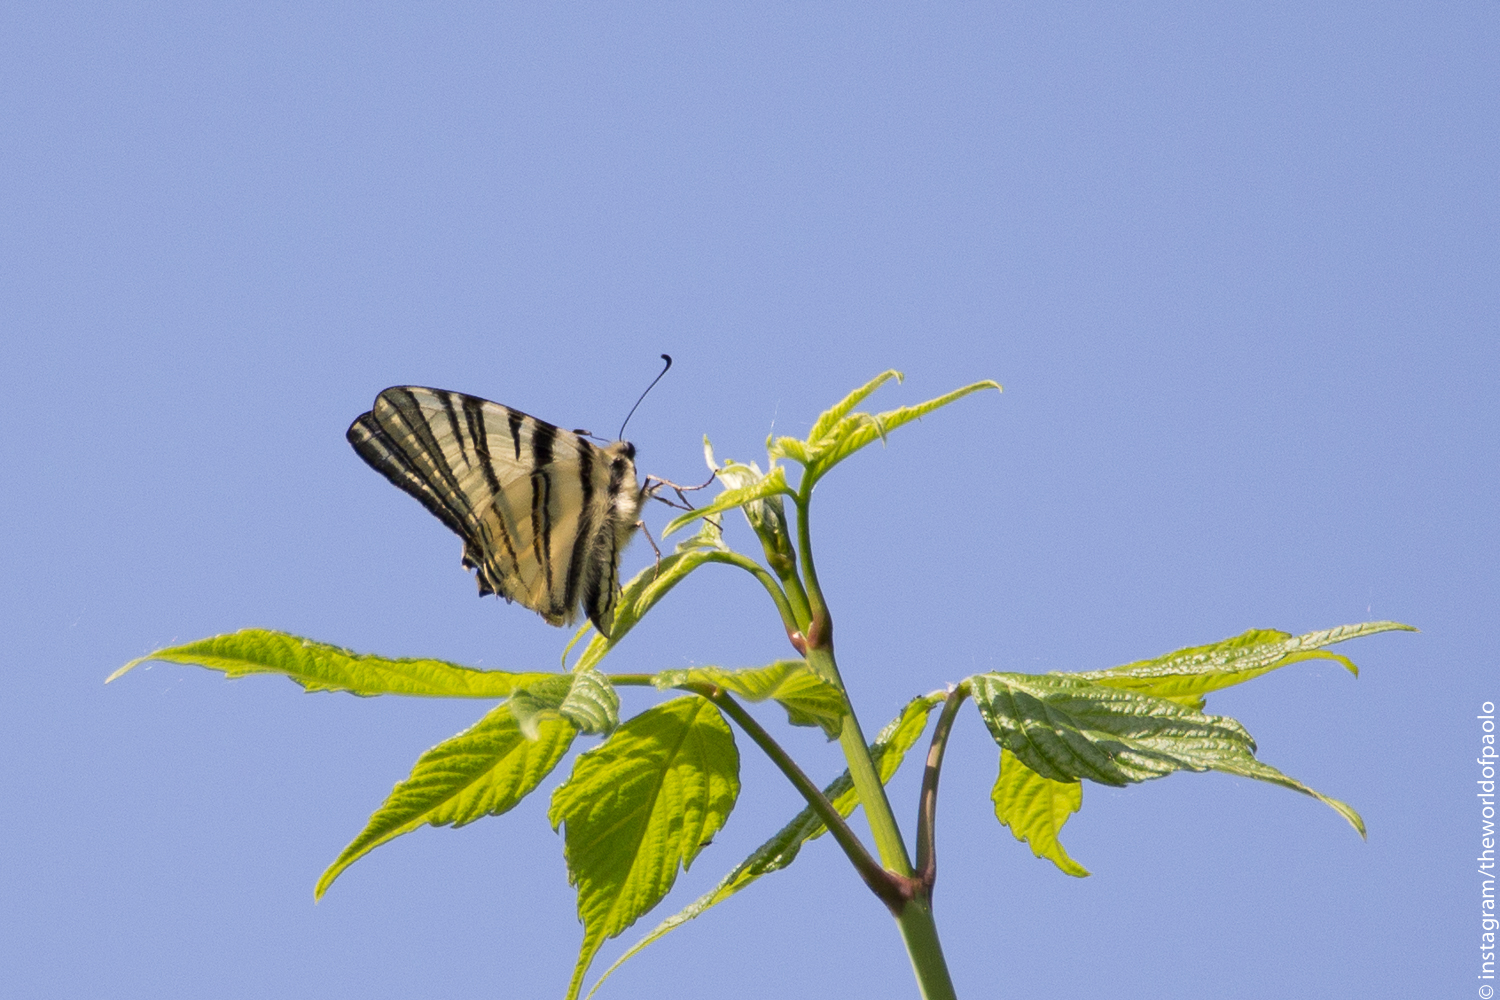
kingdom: Animalia
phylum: Arthropoda
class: Insecta
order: Lepidoptera
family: Papilionidae
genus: Iphiclides
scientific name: Iphiclides podalirius
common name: Scarce swallowtail
